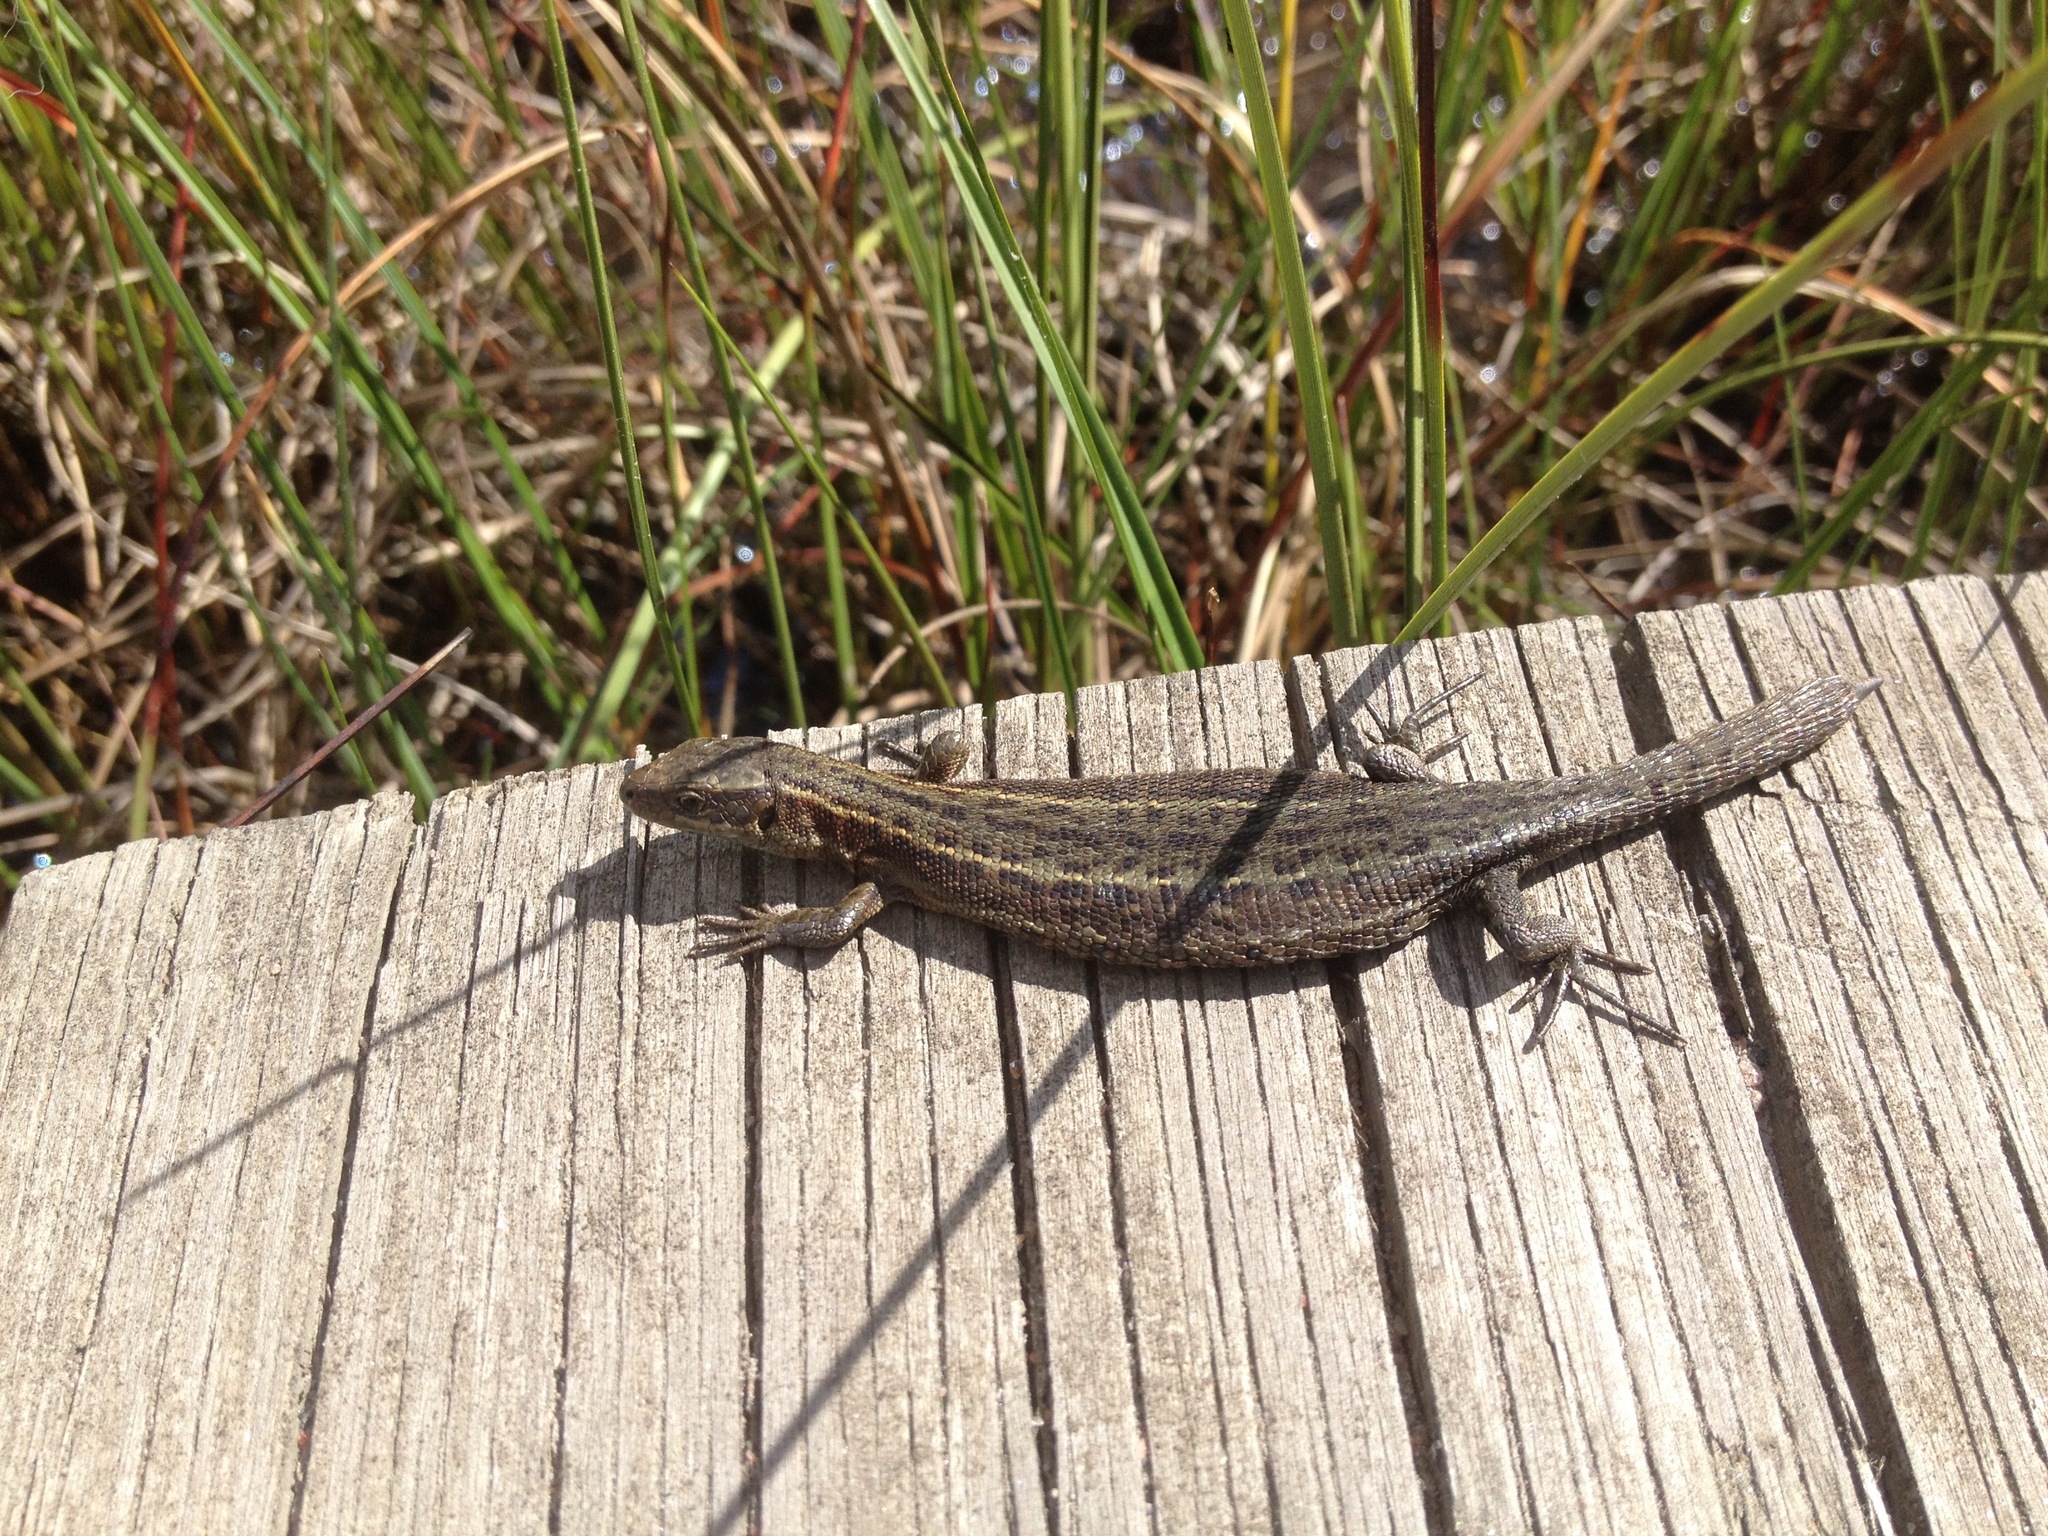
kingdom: Animalia
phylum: Chordata
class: Squamata
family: Lacertidae
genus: Zootoca
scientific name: Zootoca vivipara
